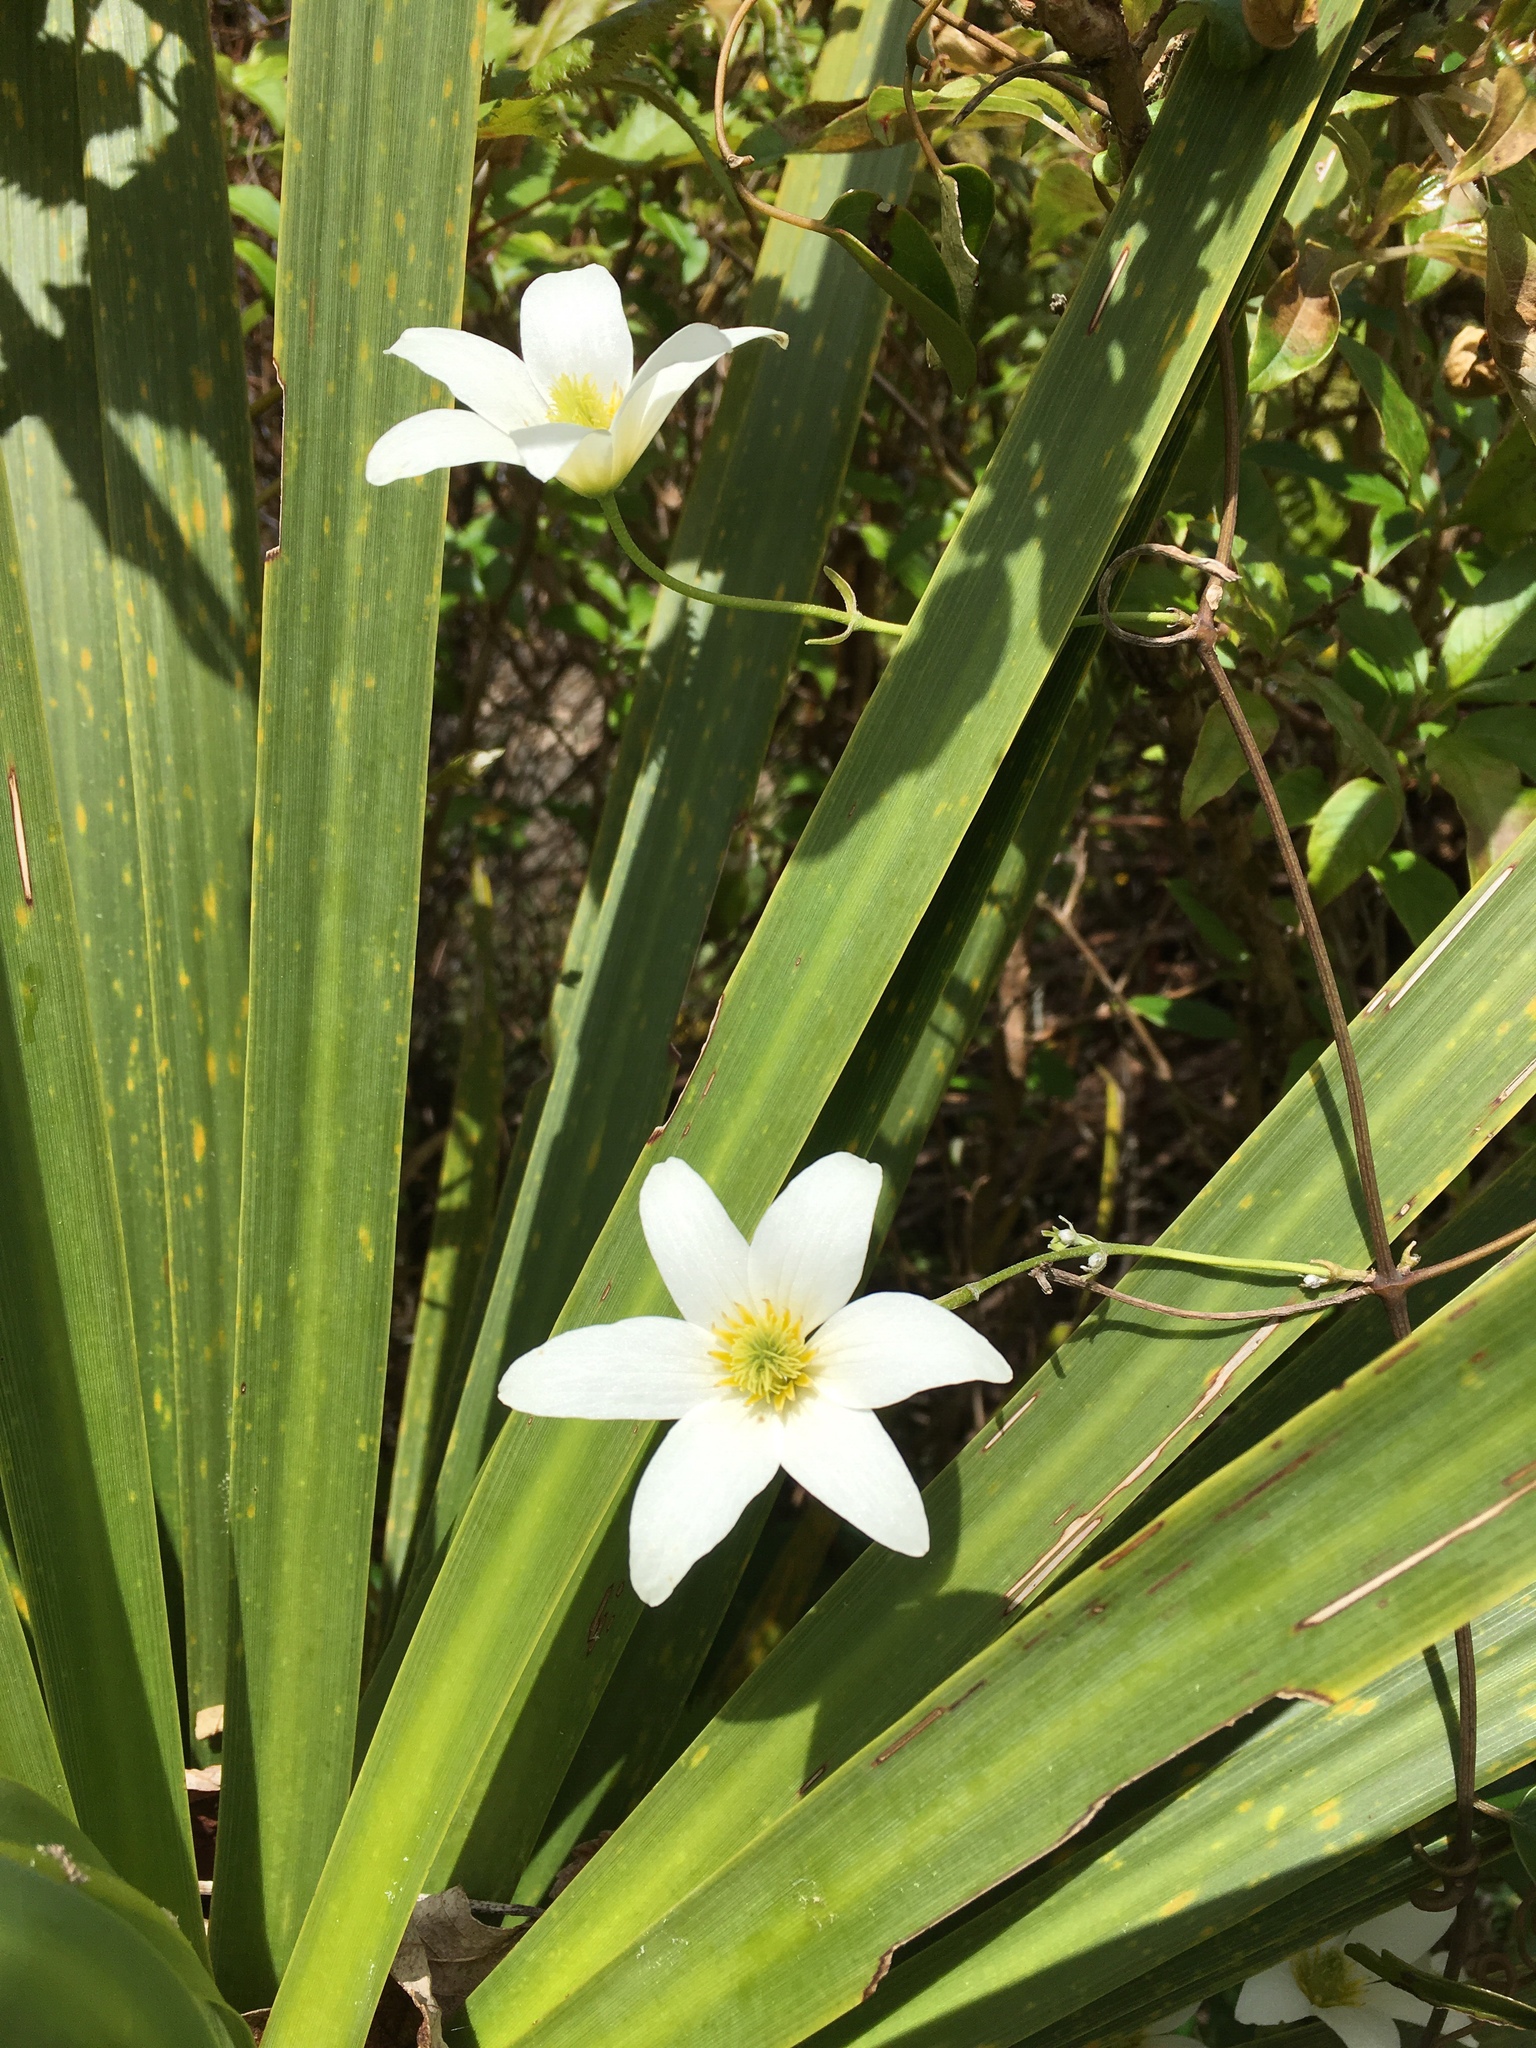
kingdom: Plantae
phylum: Tracheophyta
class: Magnoliopsida
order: Ranunculales
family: Ranunculaceae
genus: Clematis
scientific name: Clematis paniculata
